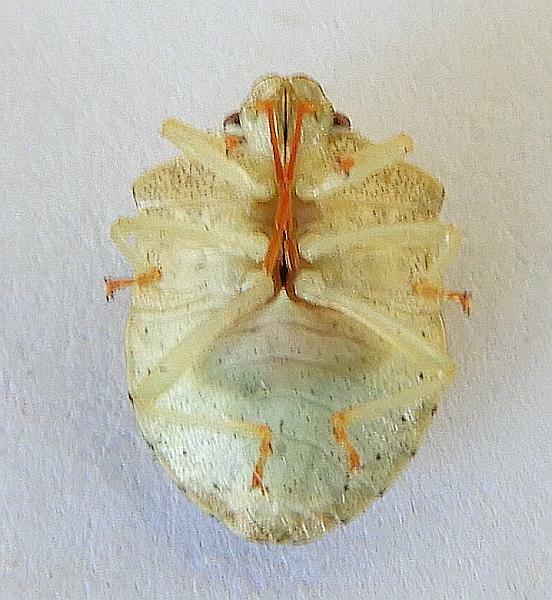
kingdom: Animalia
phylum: Arthropoda
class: Insecta
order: Hemiptera
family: Pentatomidae
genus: Dendrocoris
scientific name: Dendrocoris reticulatus
